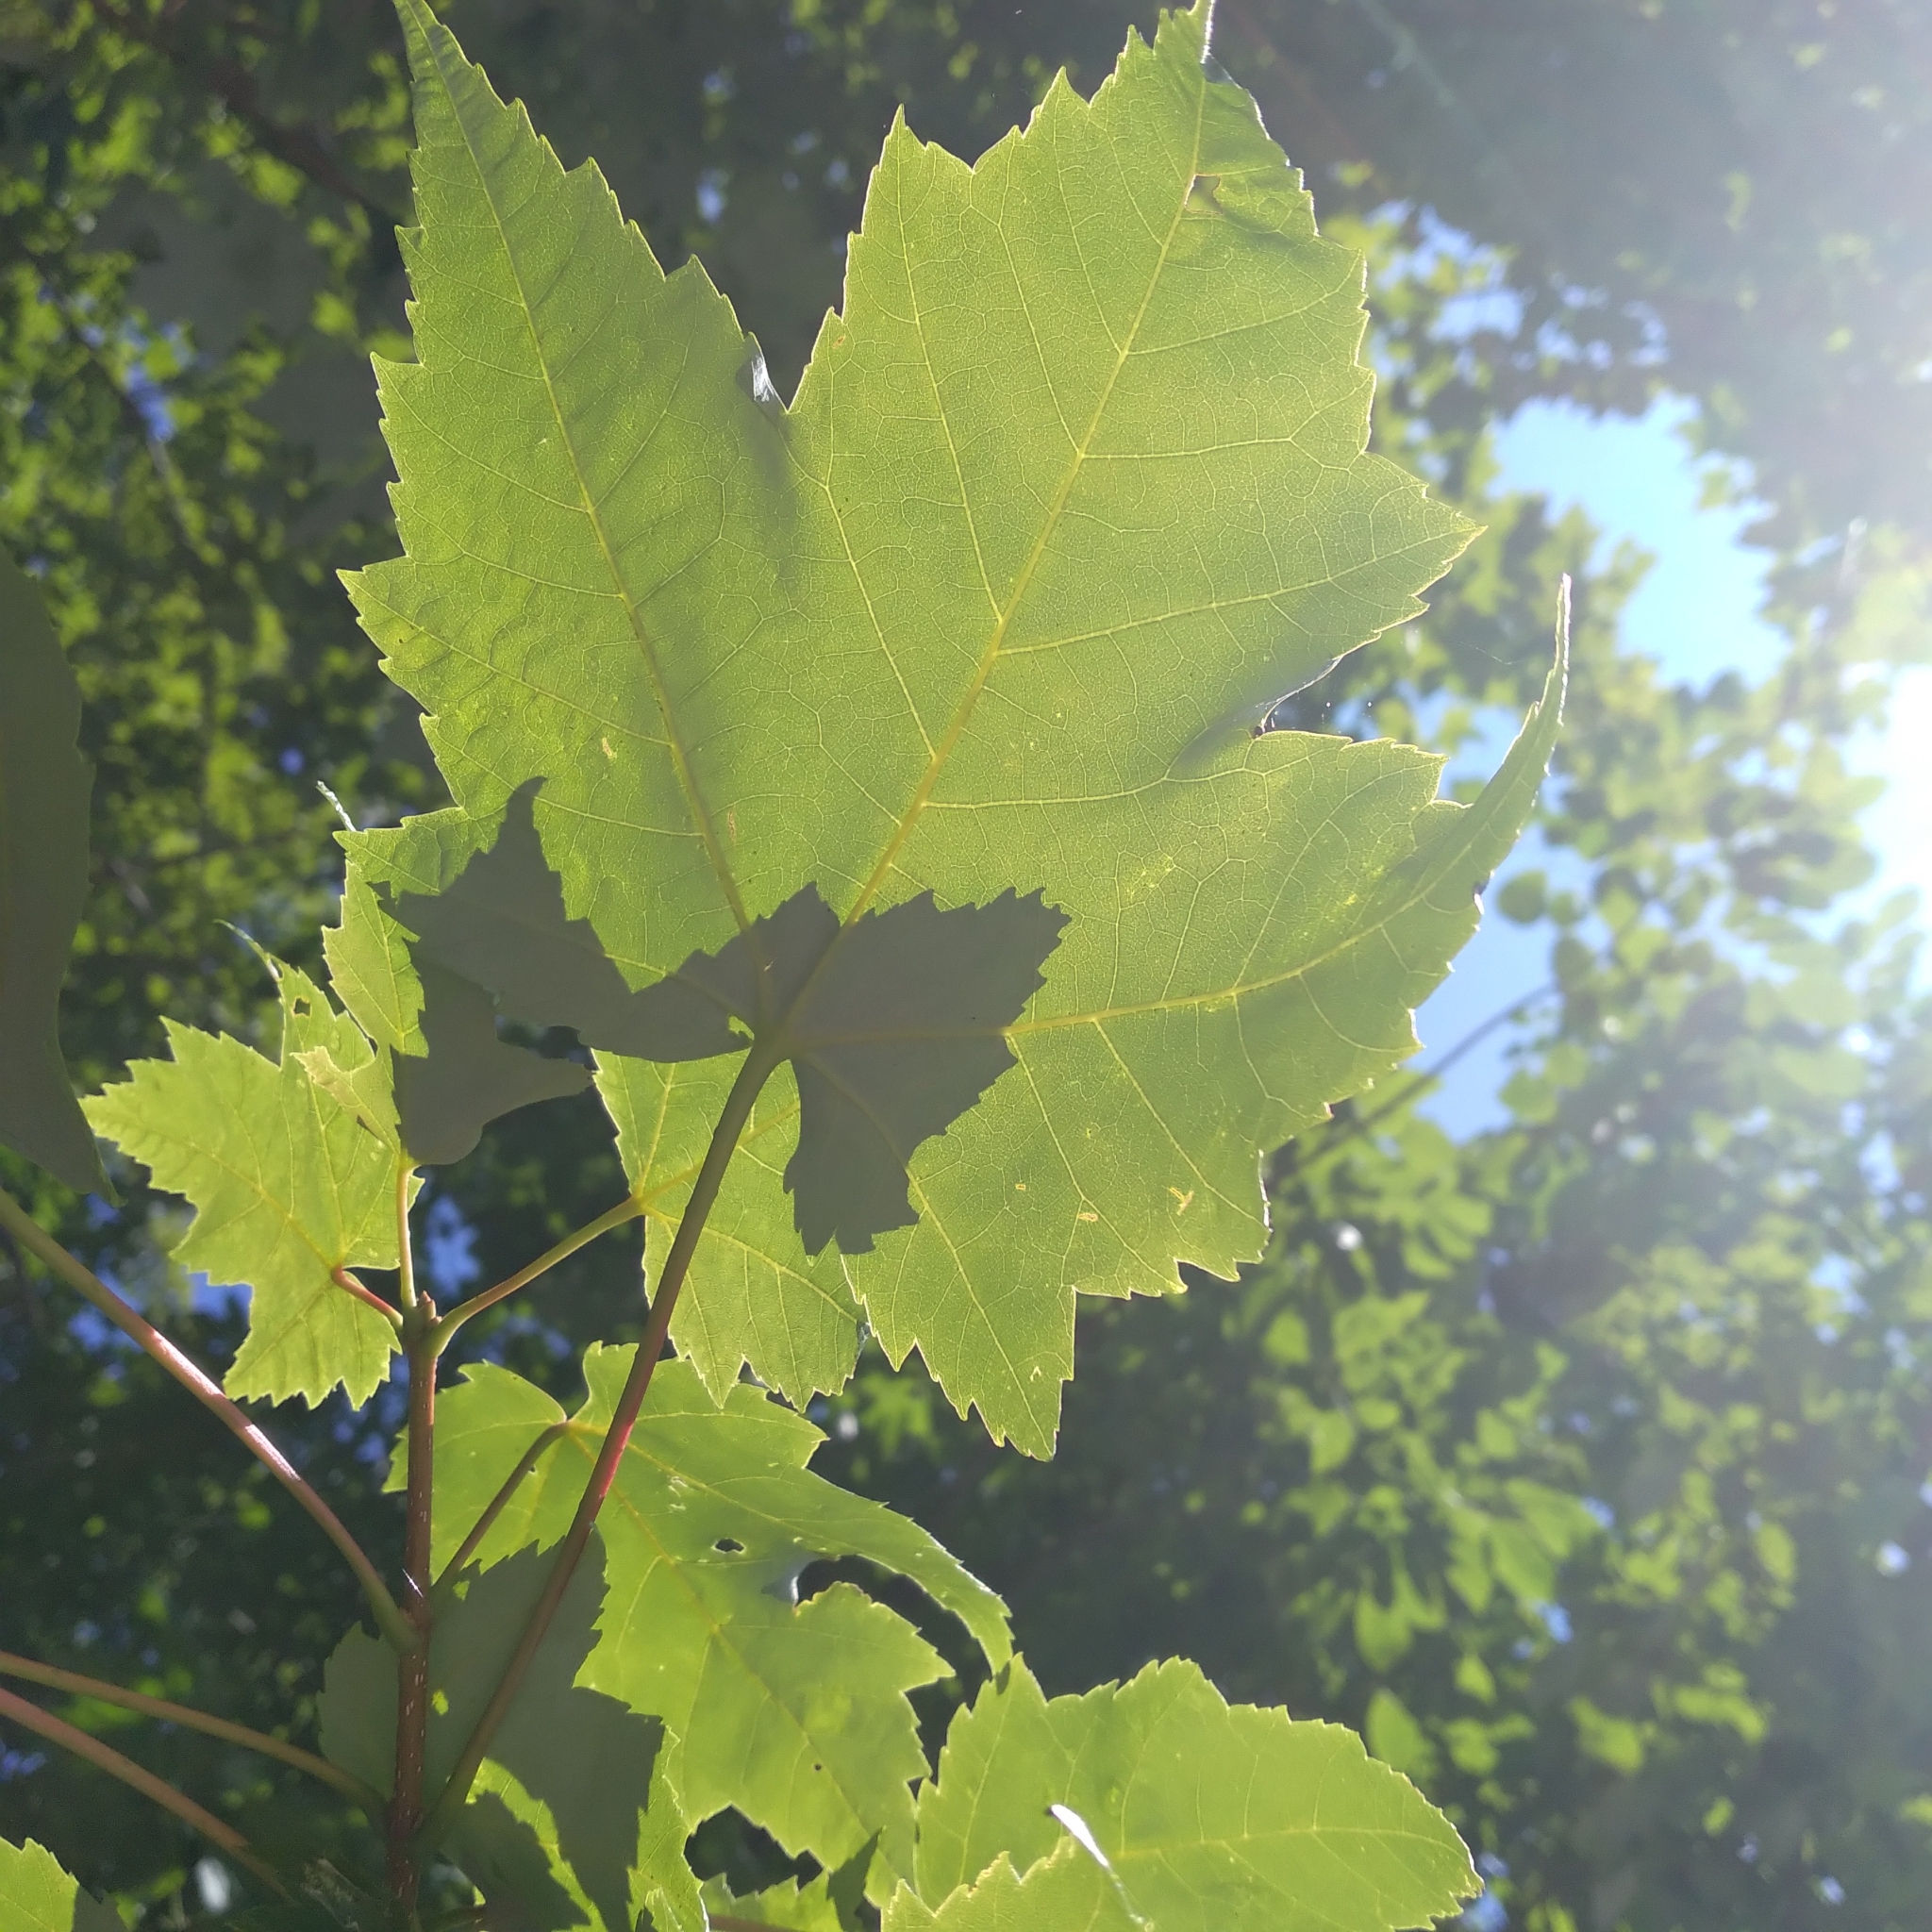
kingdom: Plantae
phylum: Tracheophyta
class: Magnoliopsida
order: Sapindales
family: Sapindaceae
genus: Acer
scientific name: Acer rubrum
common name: Red maple
